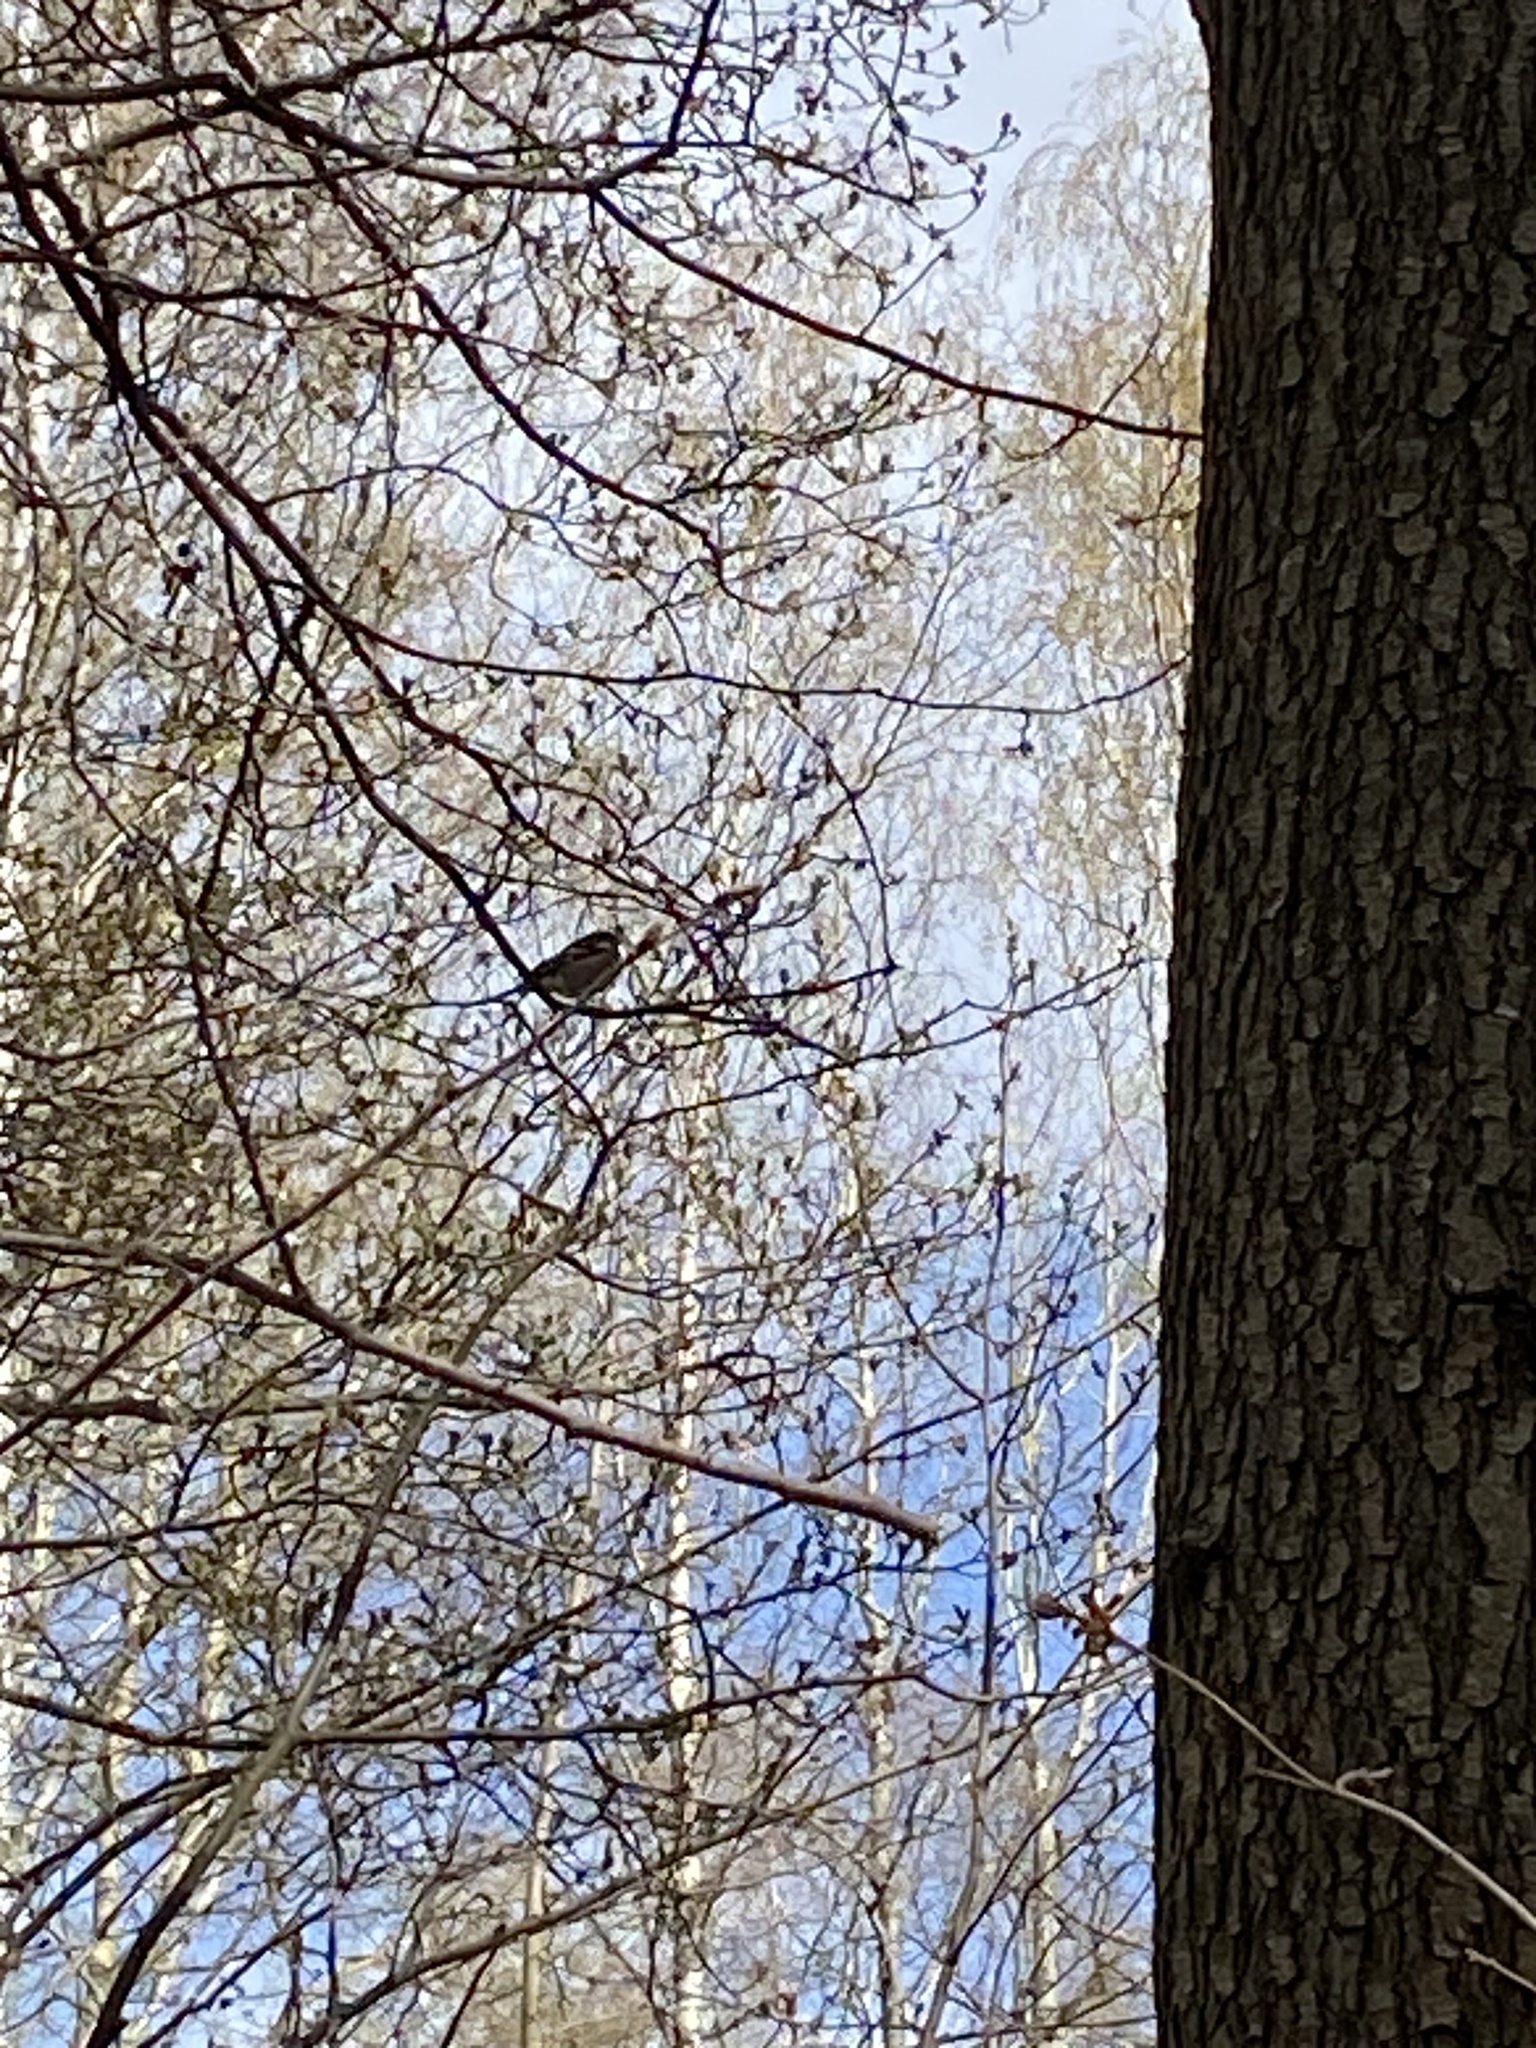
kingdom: Animalia
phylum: Chordata
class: Aves
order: Passeriformes
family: Fringillidae
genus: Fringilla
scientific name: Fringilla coelebs
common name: Common chaffinch
